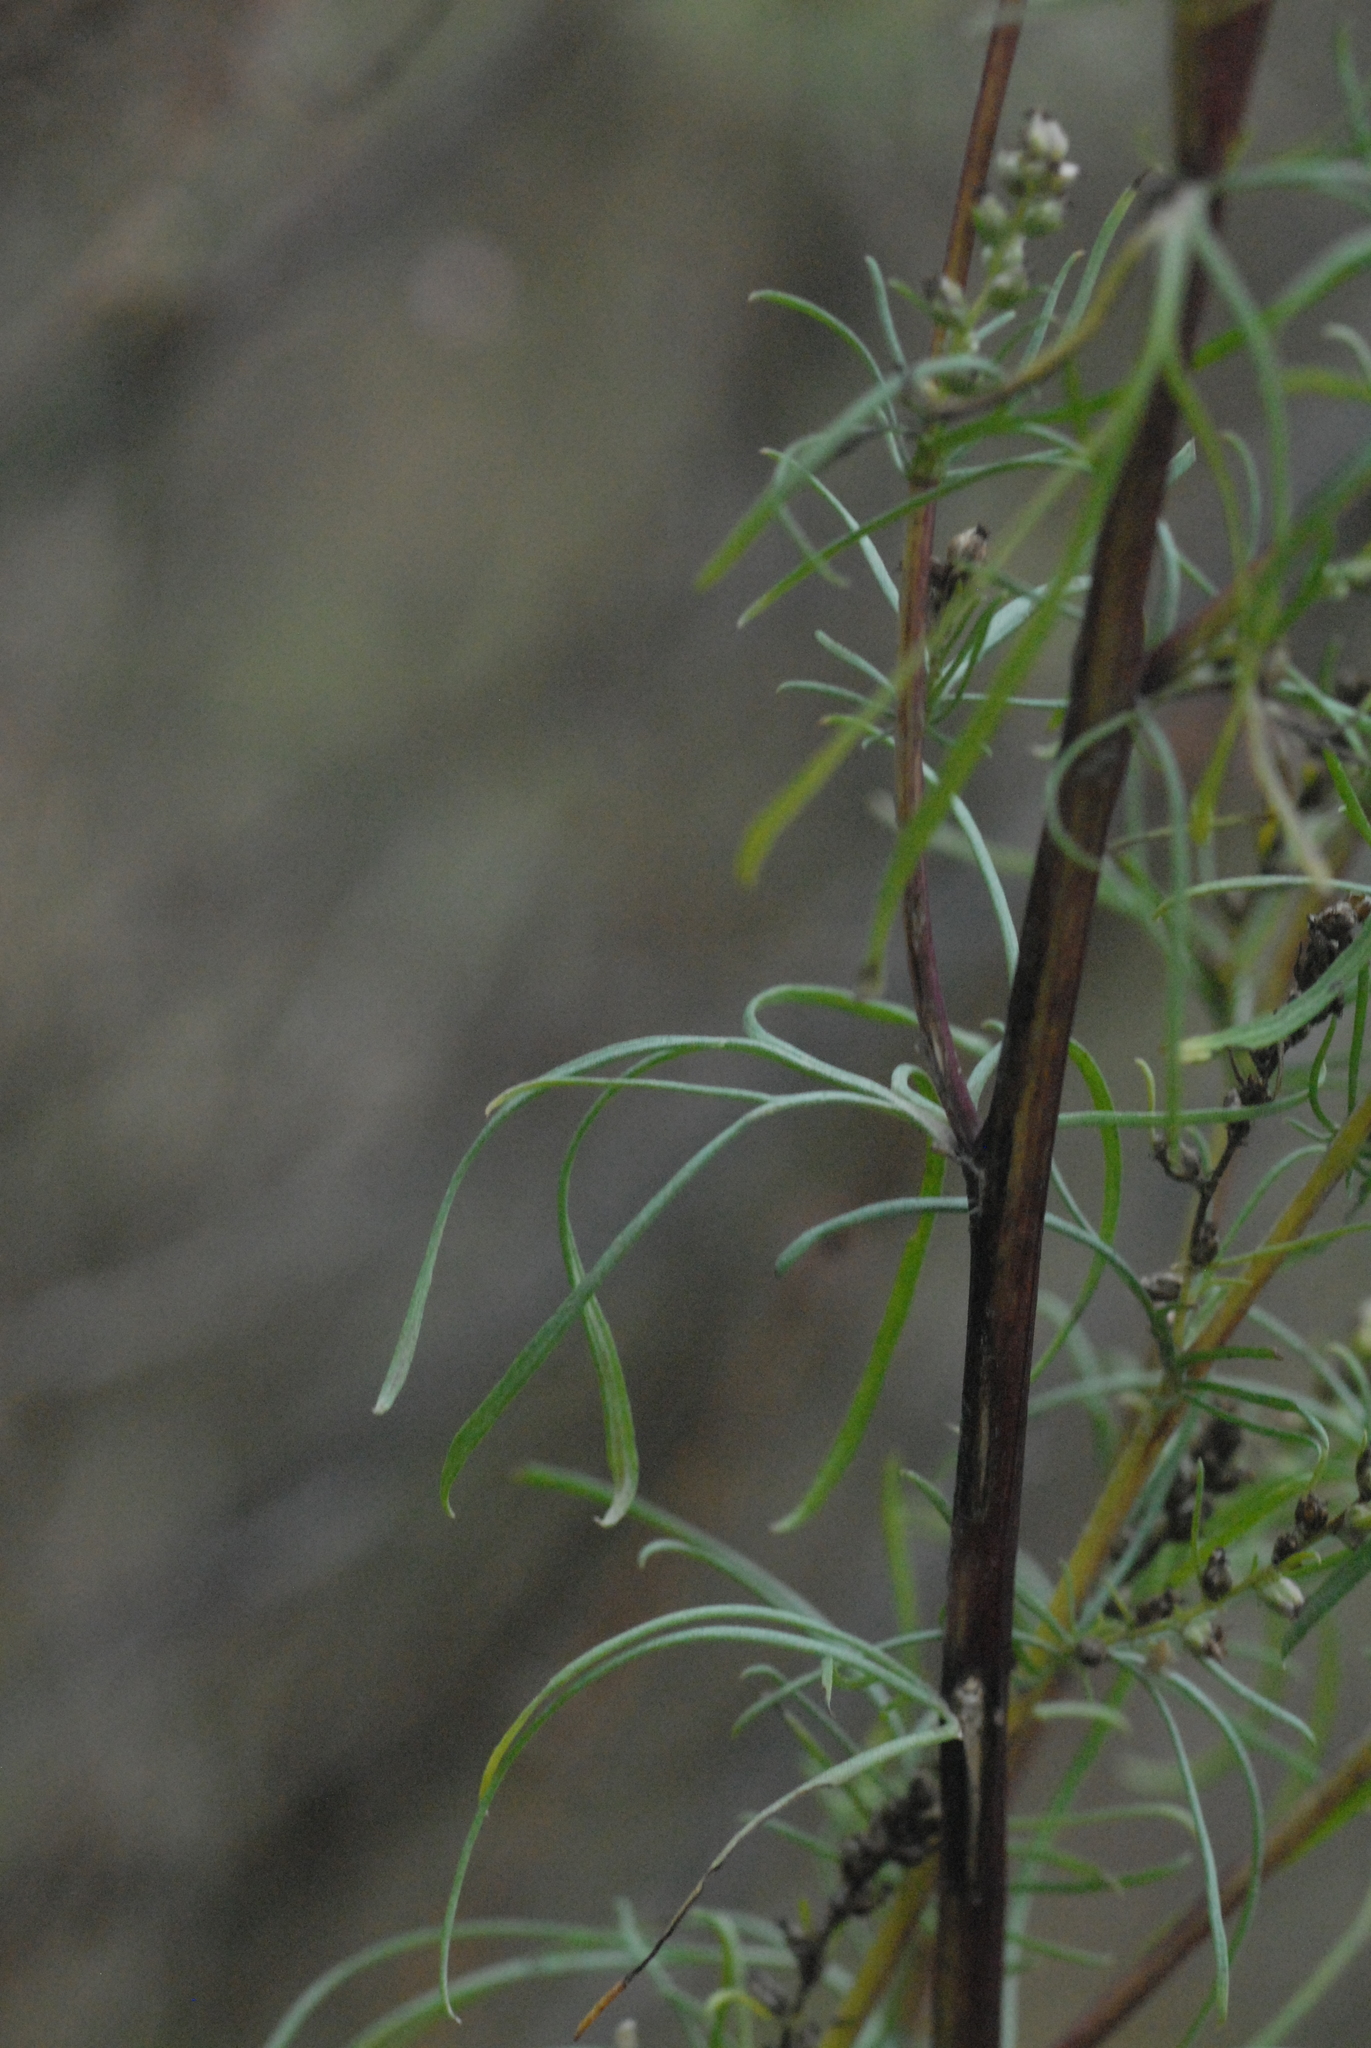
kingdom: Plantae
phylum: Tracheophyta
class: Magnoliopsida
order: Asterales
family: Asteraceae
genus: Artemisia
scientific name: Artemisia campestris
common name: Field wormwood
